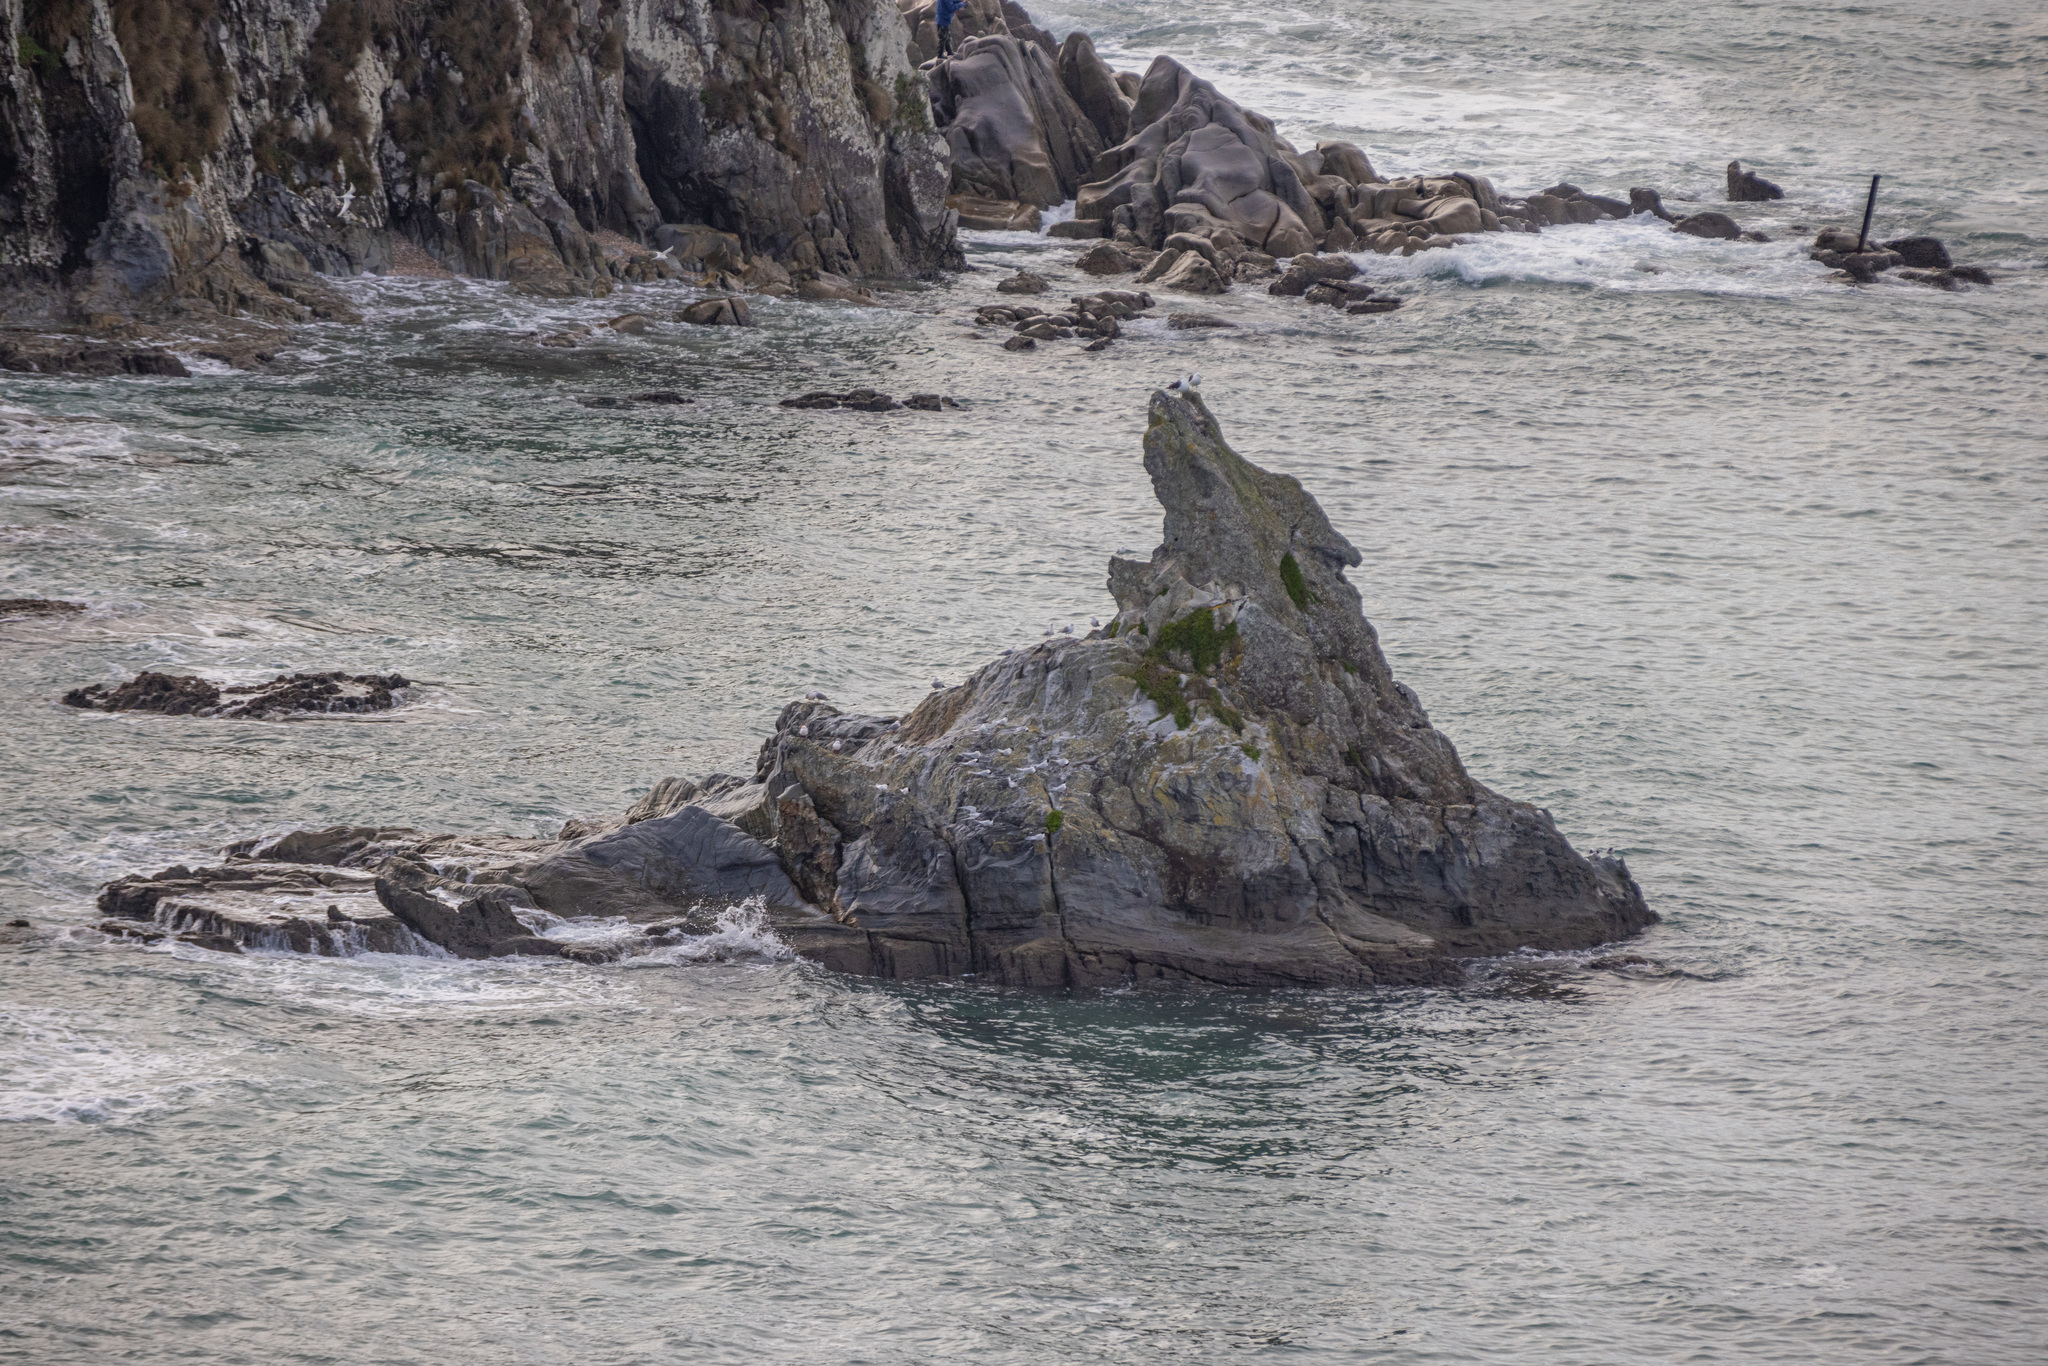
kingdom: Animalia
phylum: Chordata
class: Aves
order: Charadriiformes
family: Laridae
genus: Sterna
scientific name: Sterna striata
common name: White-fronted tern
